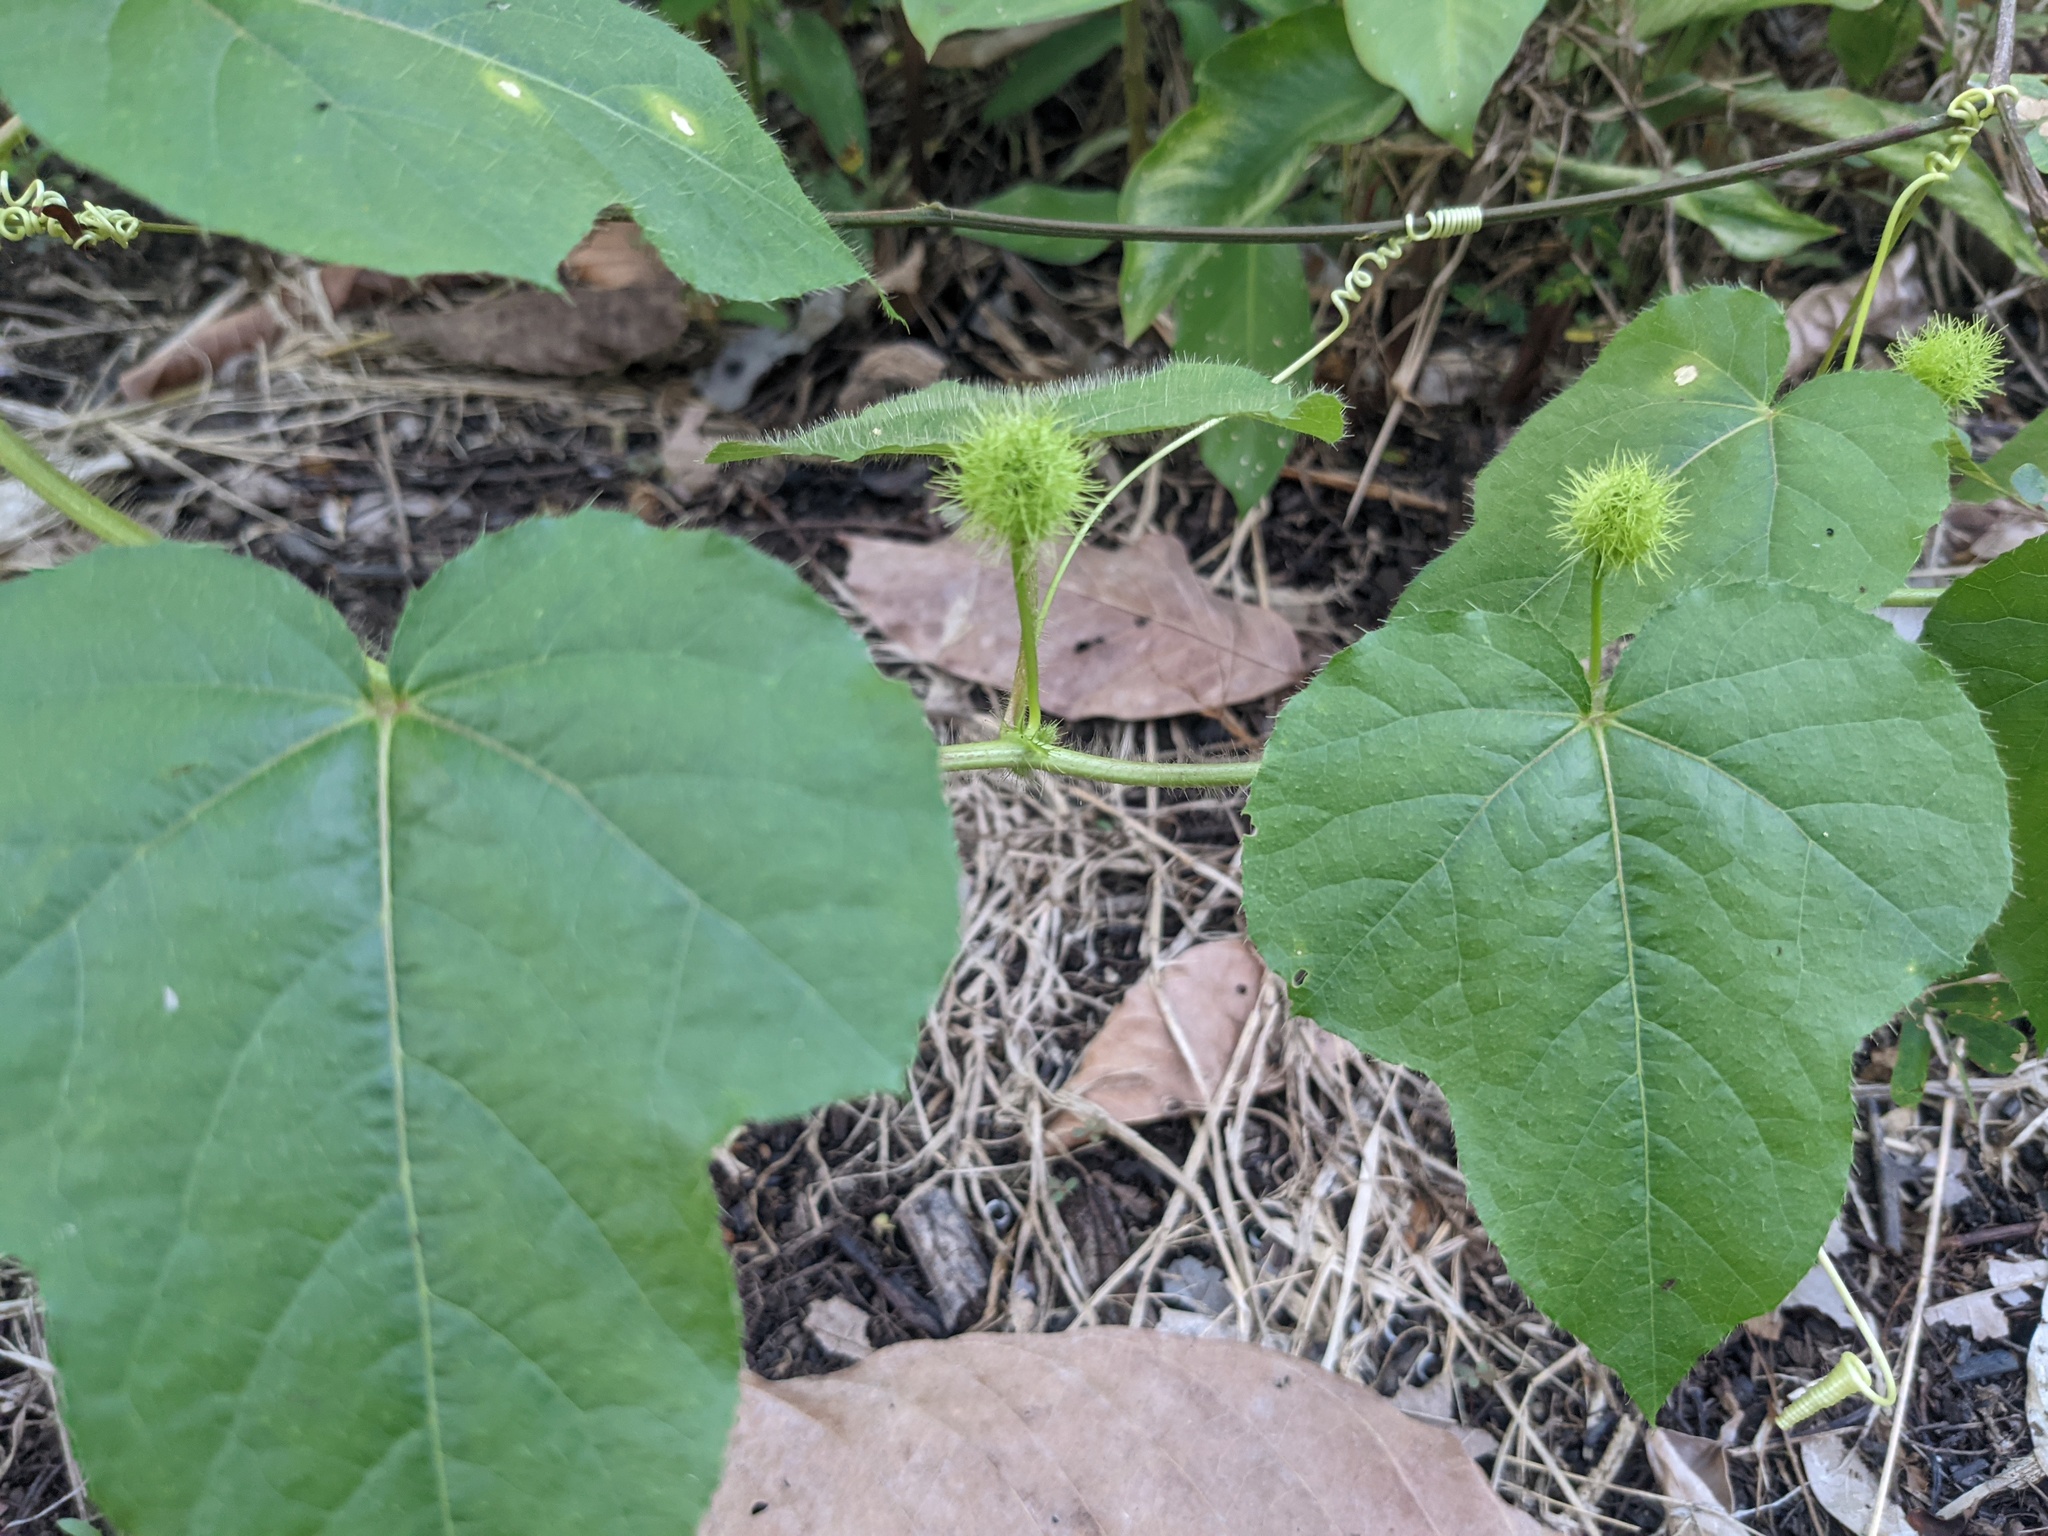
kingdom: Plantae
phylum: Tracheophyta
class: Magnoliopsida
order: Malpighiales
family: Passifloraceae
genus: Passiflora
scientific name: Passiflora foetida
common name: Fetid passionflower
